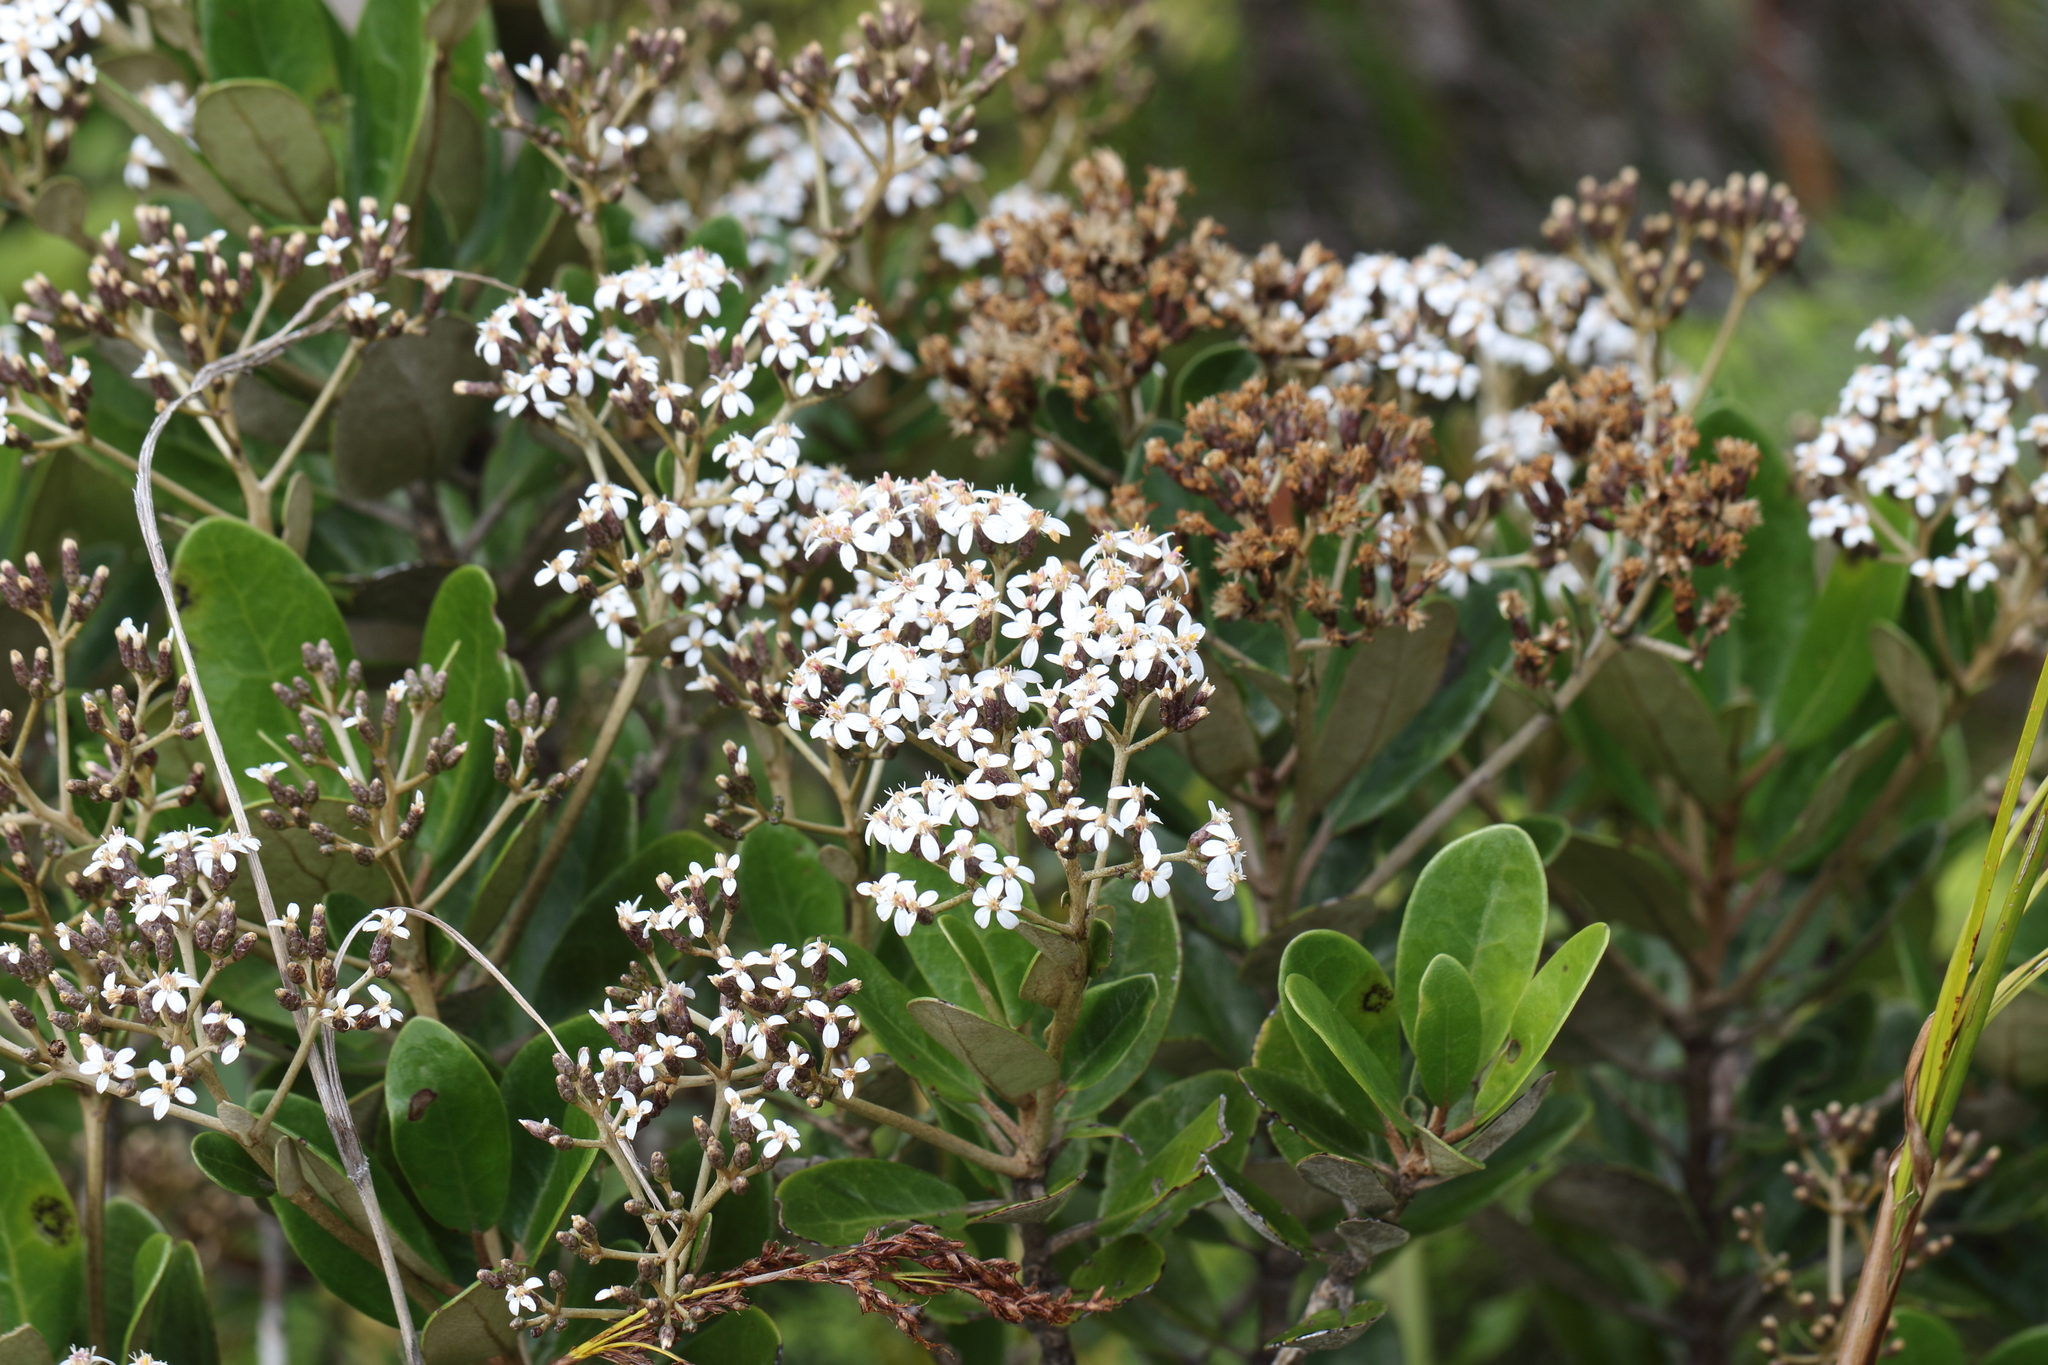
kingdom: Plantae
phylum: Tracheophyta
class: Magnoliopsida
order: Asterales
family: Asteraceae
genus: Olearia
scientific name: Olearia townsonii
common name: Coromandel tree daisy
